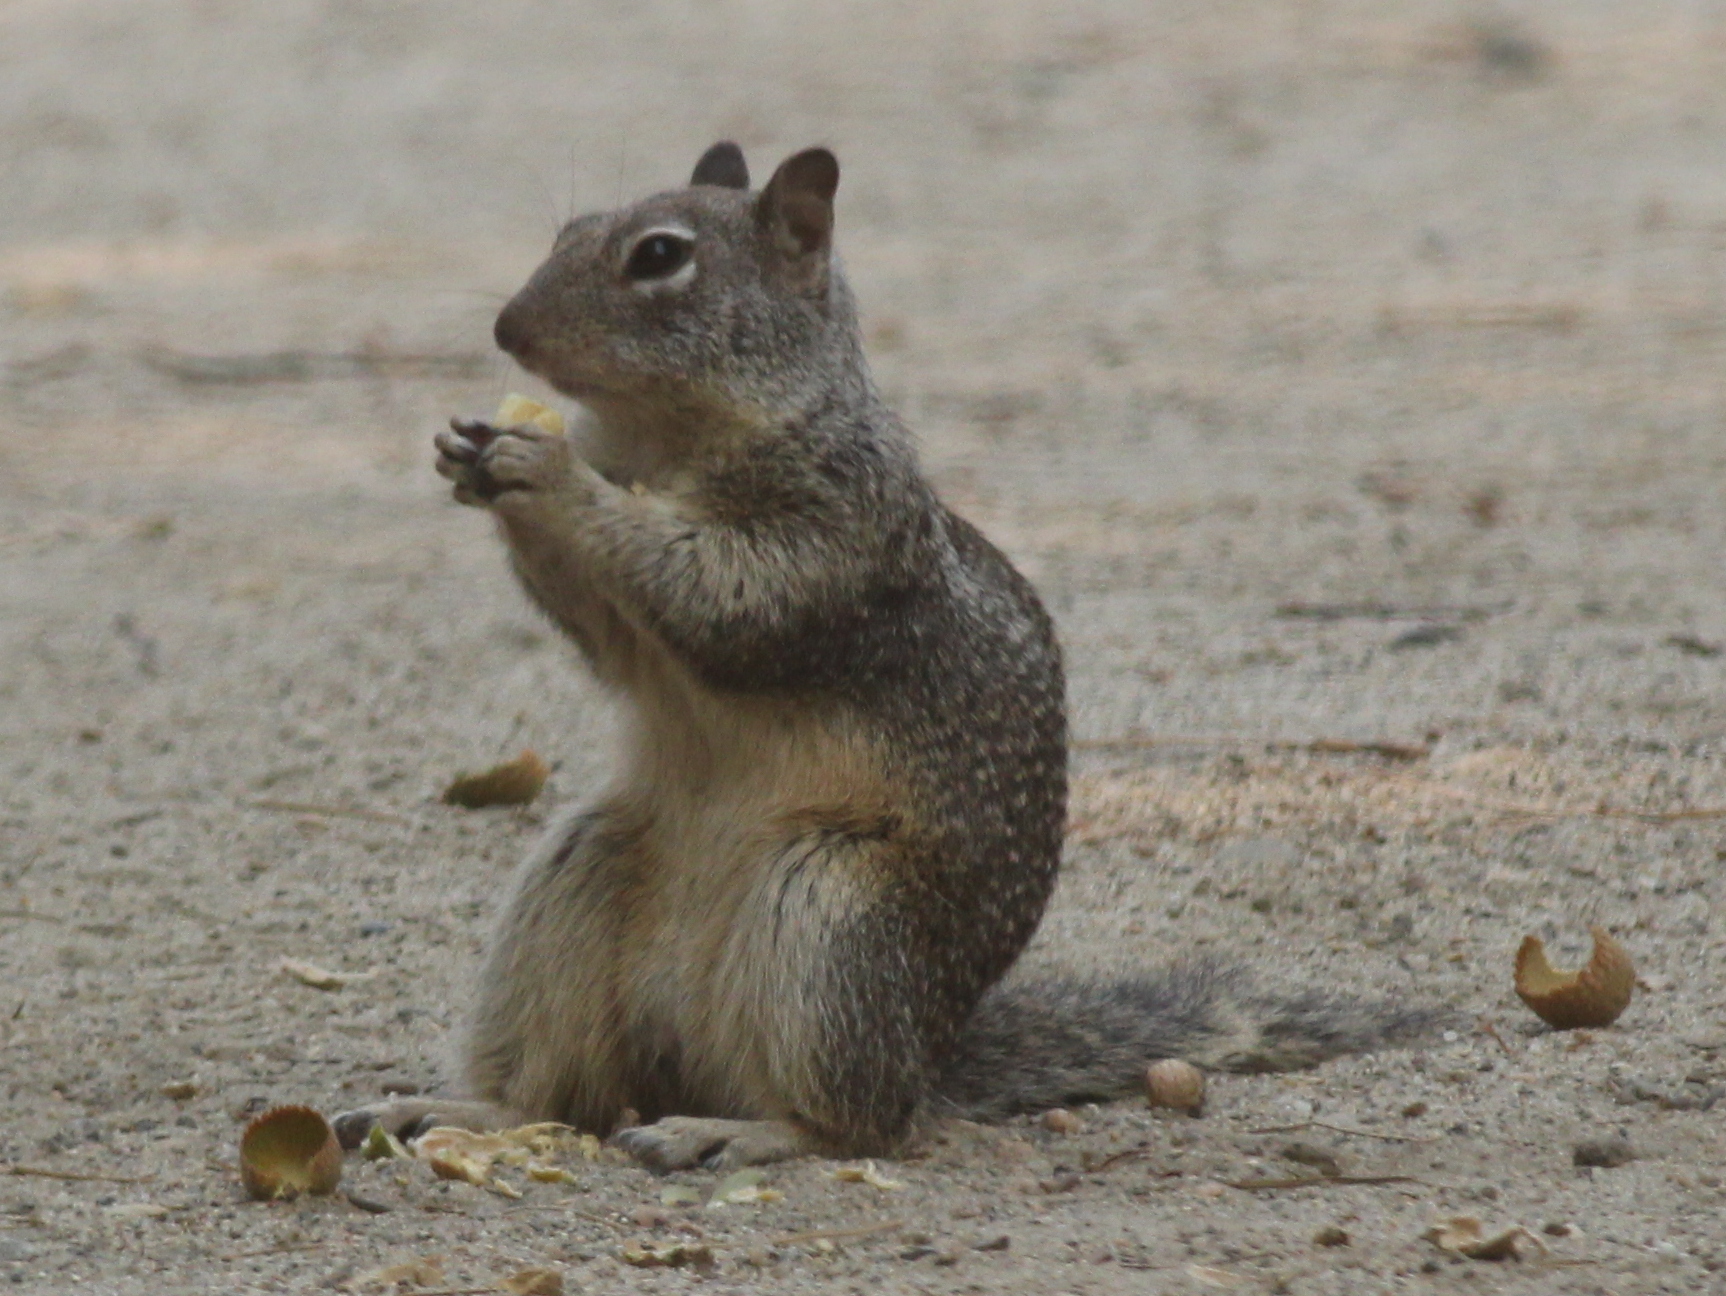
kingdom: Animalia
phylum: Chordata
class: Mammalia
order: Rodentia
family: Sciuridae
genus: Otospermophilus
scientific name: Otospermophilus beecheyi
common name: California ground squirrel
